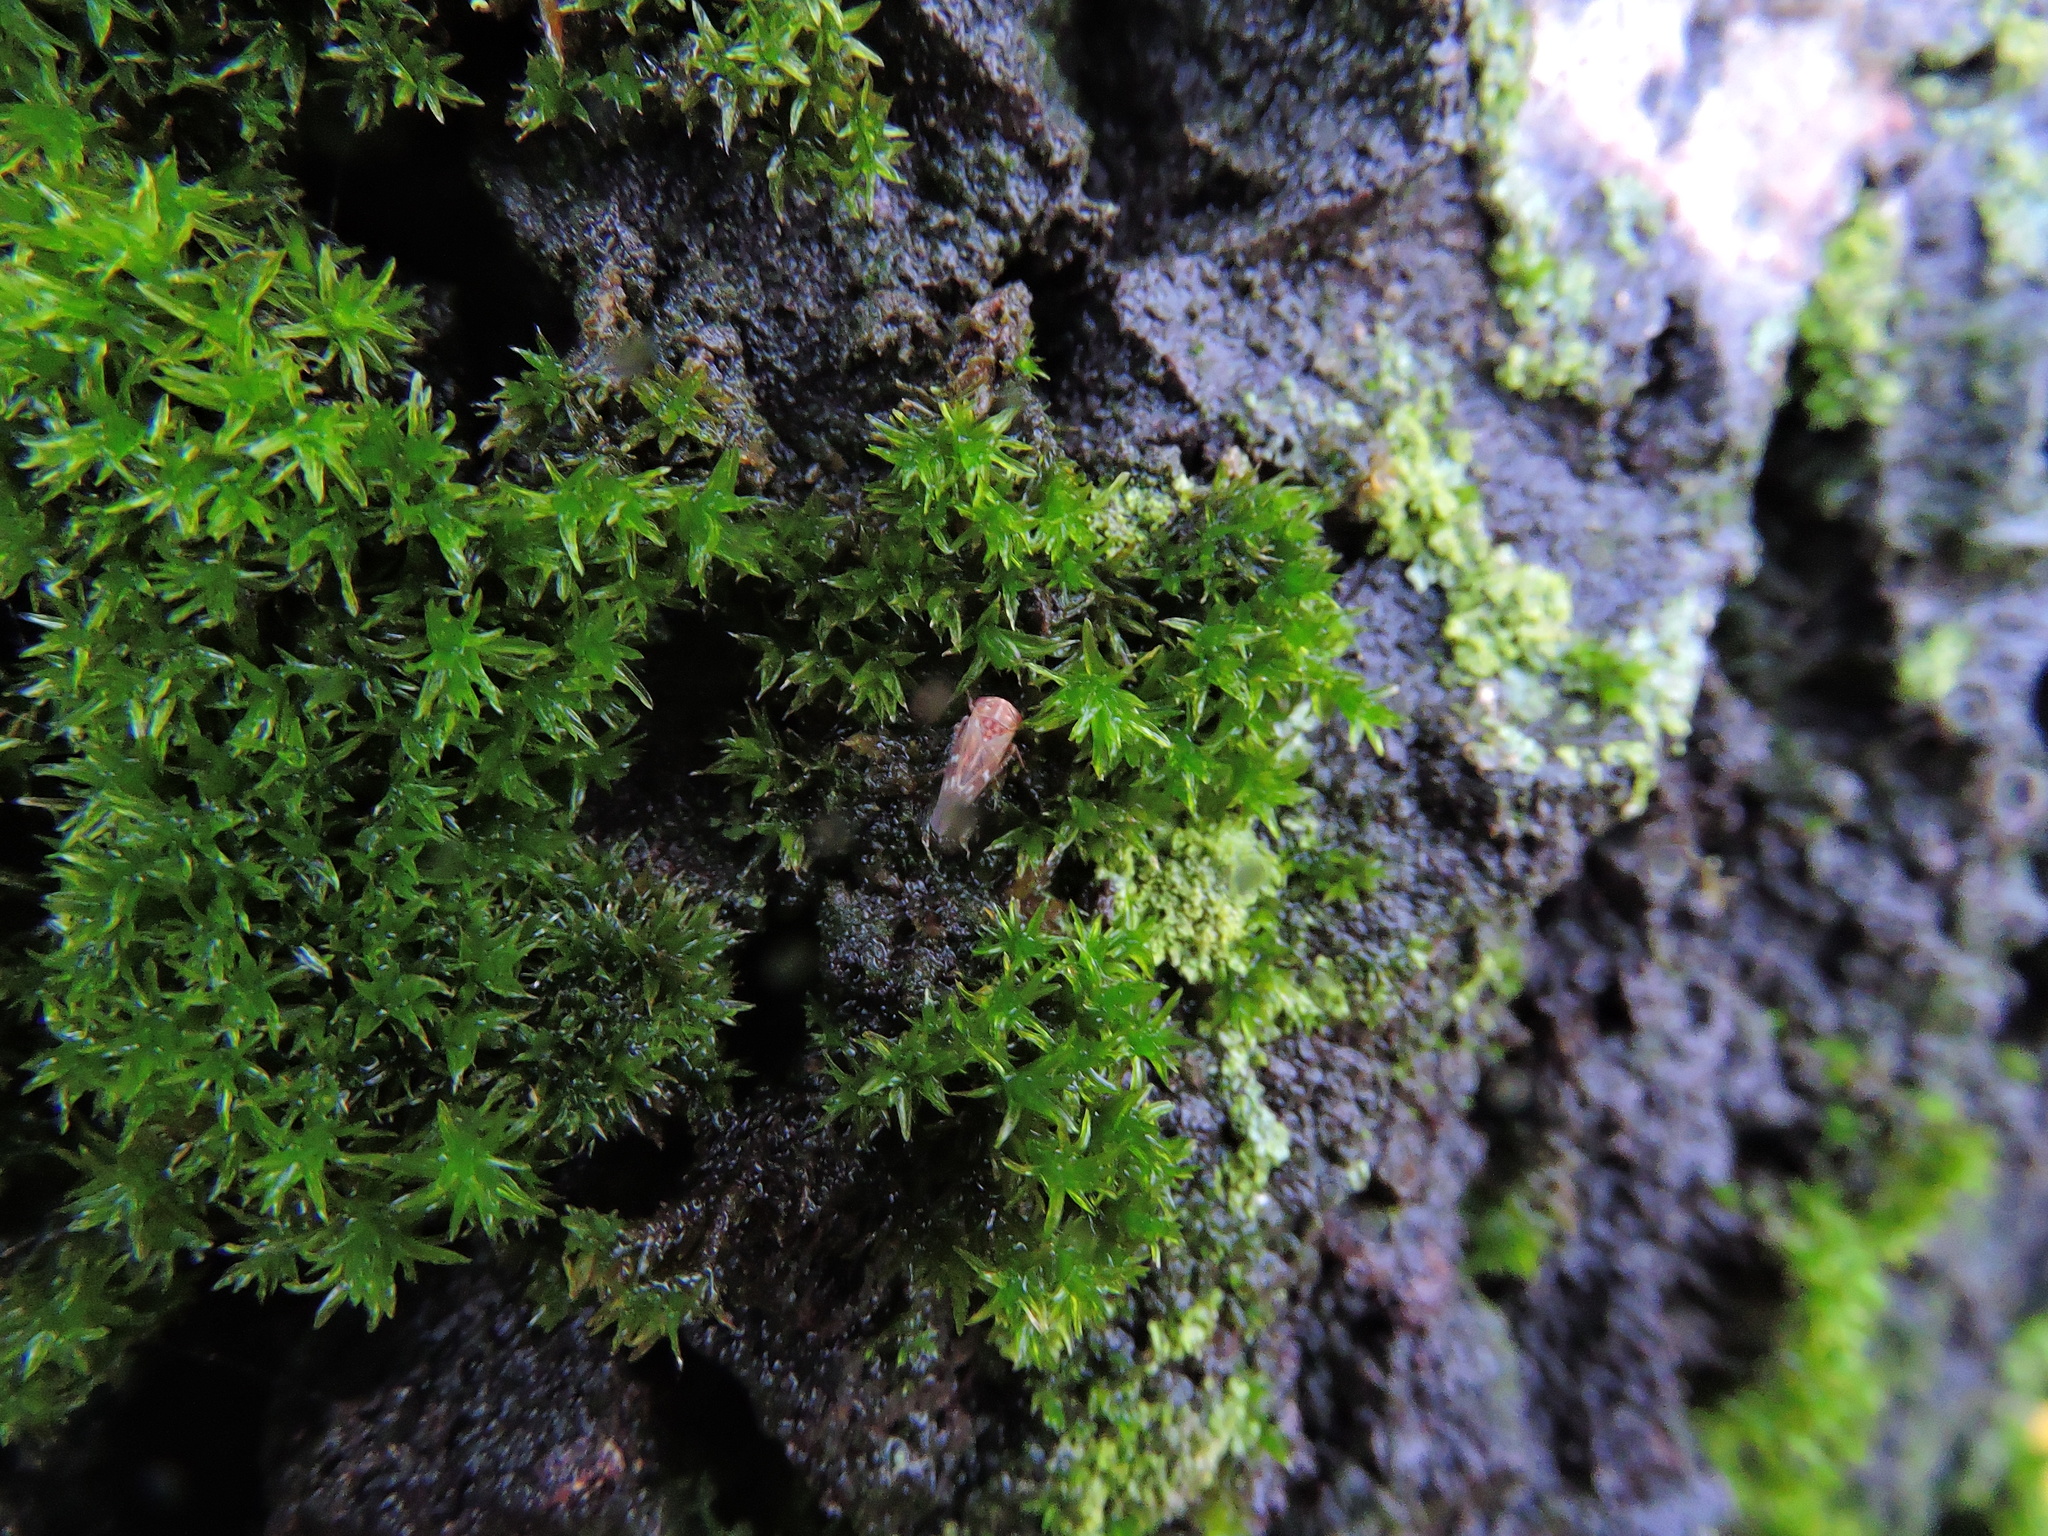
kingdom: Animalia
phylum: Arthropoda
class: Insecta
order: Hemiptera
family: Cicadellidae
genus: Metidiocerus
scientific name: Metidiocerus rutilans
